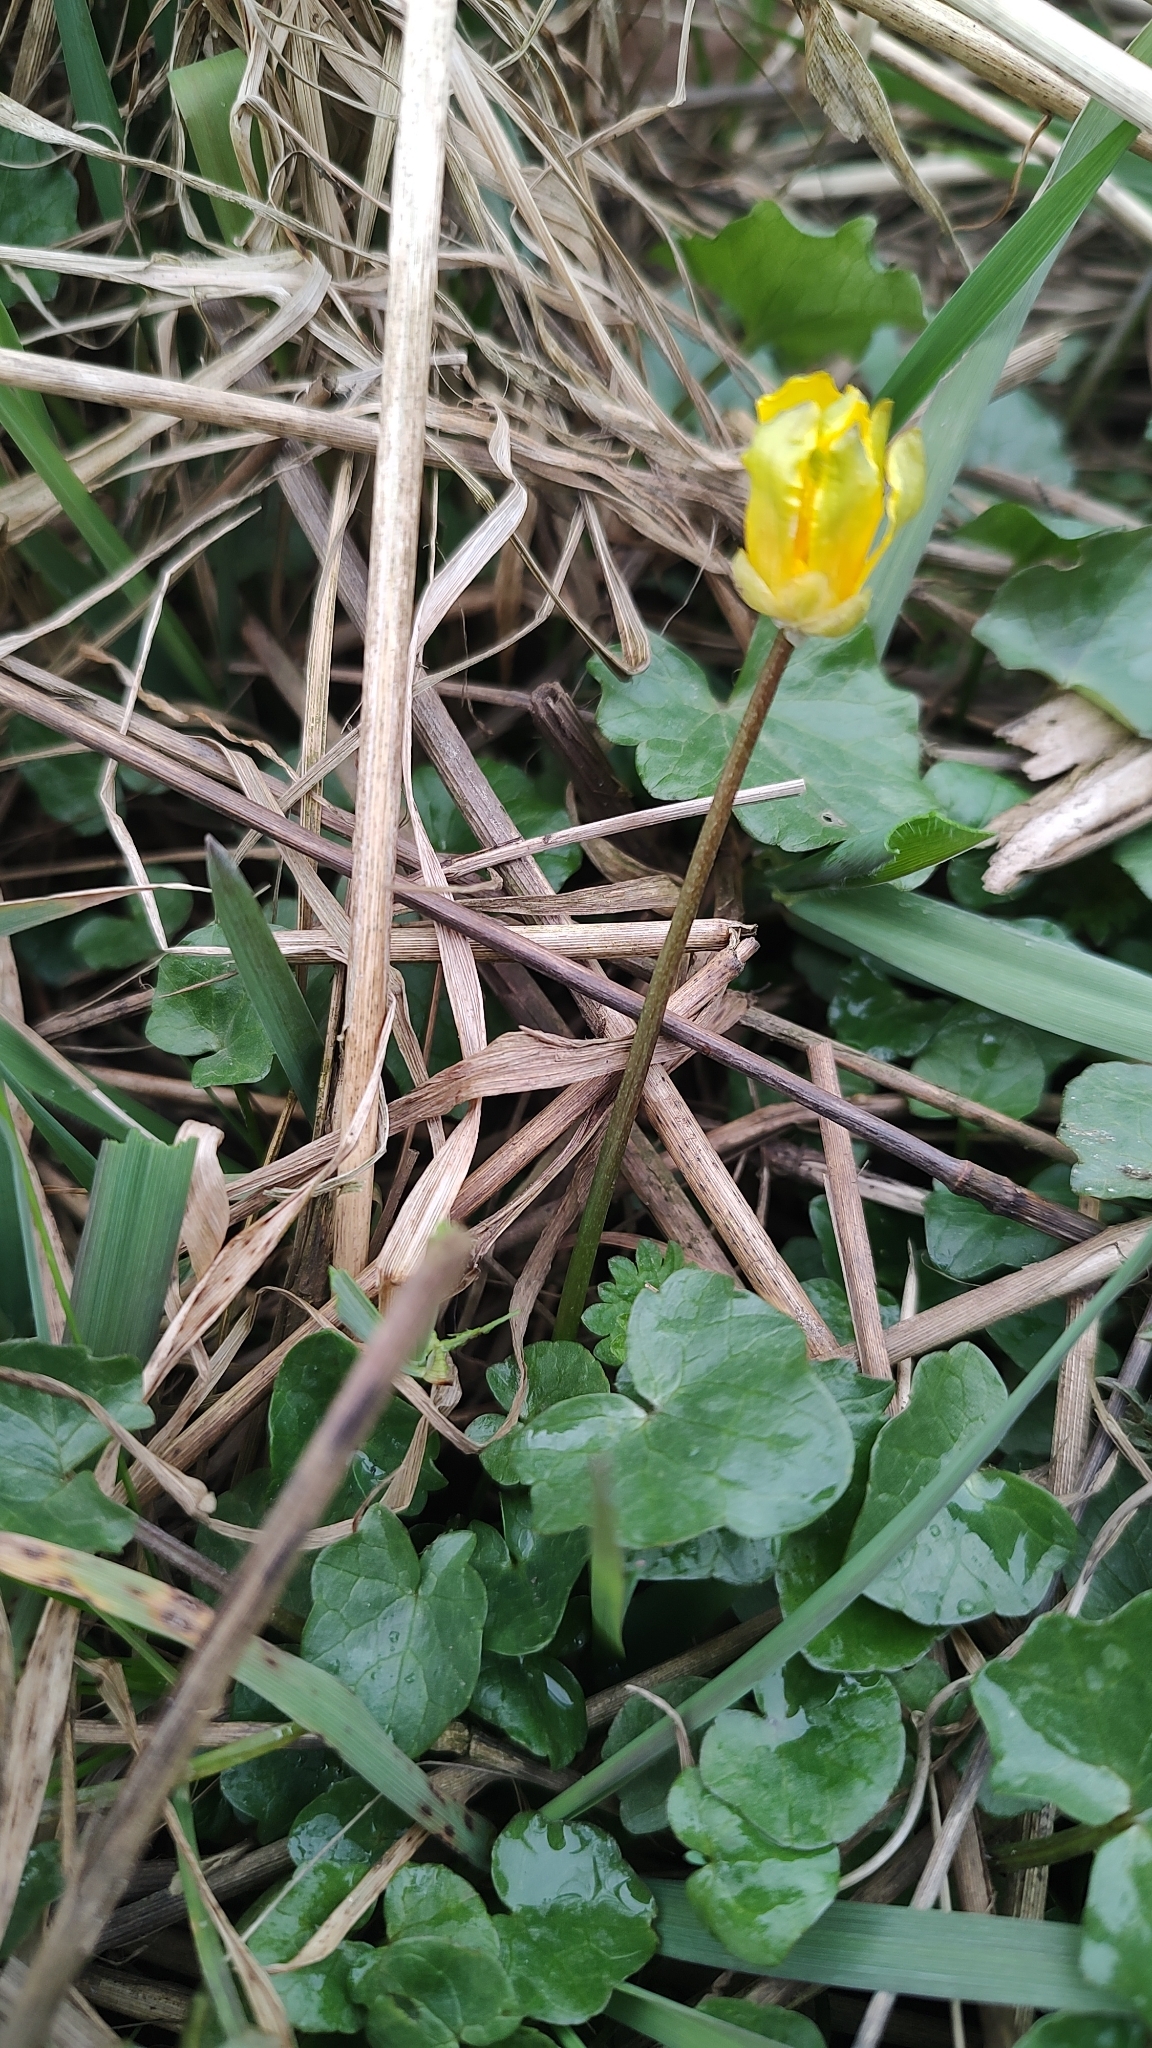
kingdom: Plantae
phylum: Tracheophyta
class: Magnoliopsida
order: Ranunculales
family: Ranunculaceae
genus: Ficaria
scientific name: Ficaria verna
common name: Lesser celandine
